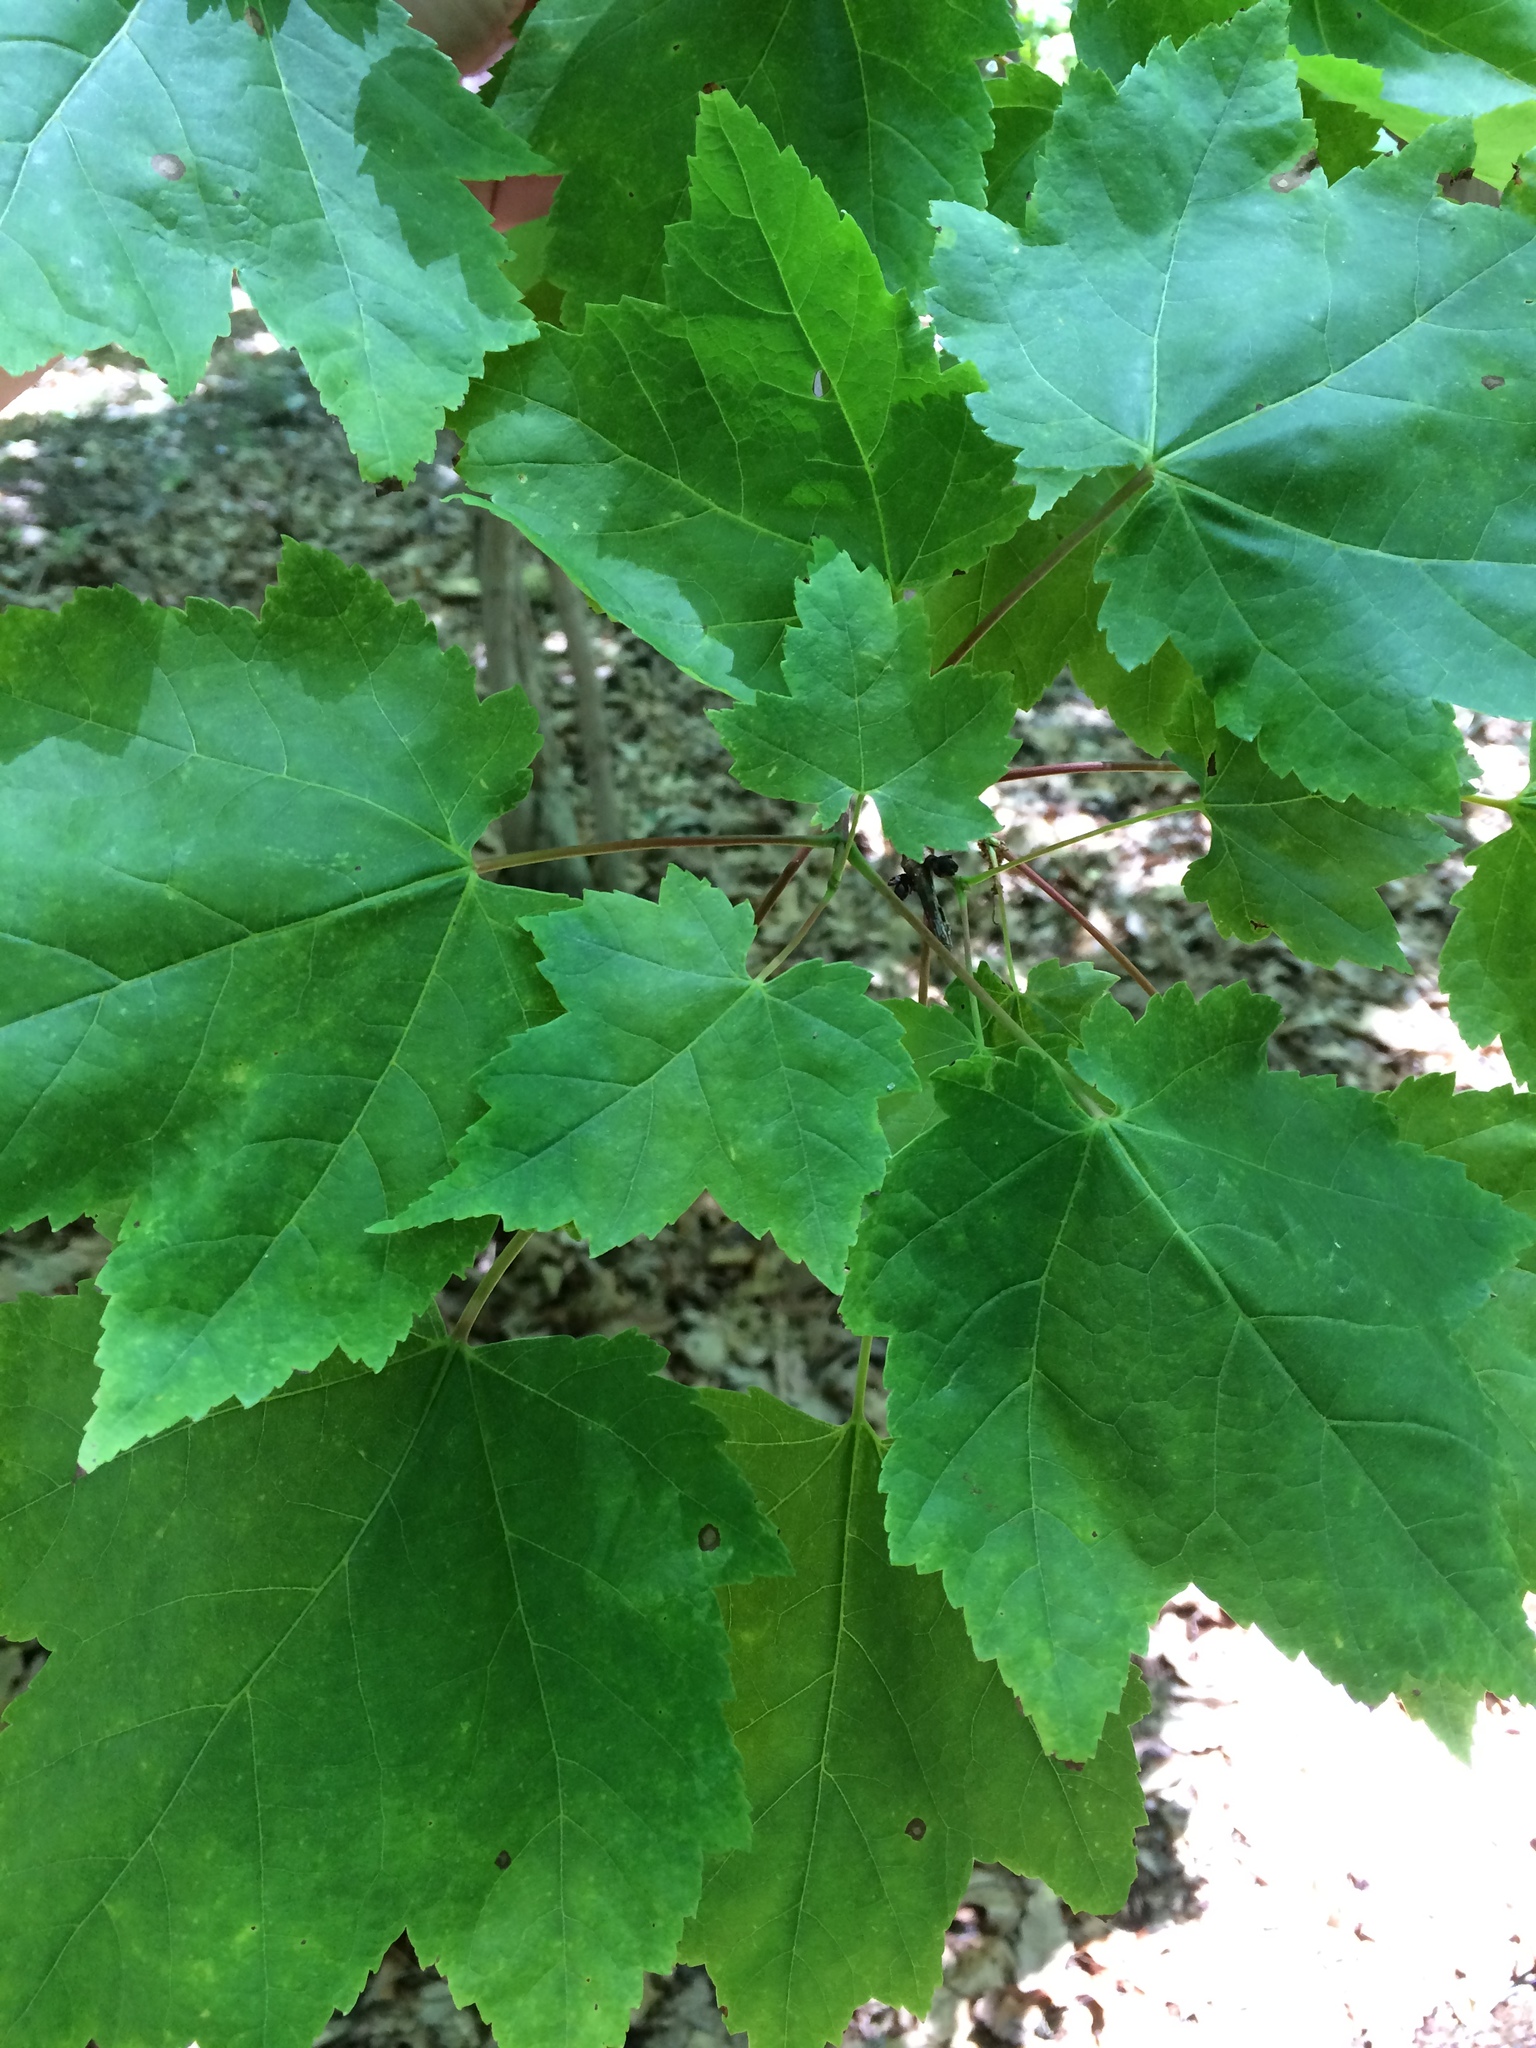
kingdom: Plantae
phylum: Tracheophyta
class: Magnoliopsida
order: Sapindales
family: Sapindaceae
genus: Acer
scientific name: Acer rubrum
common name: Red maple
